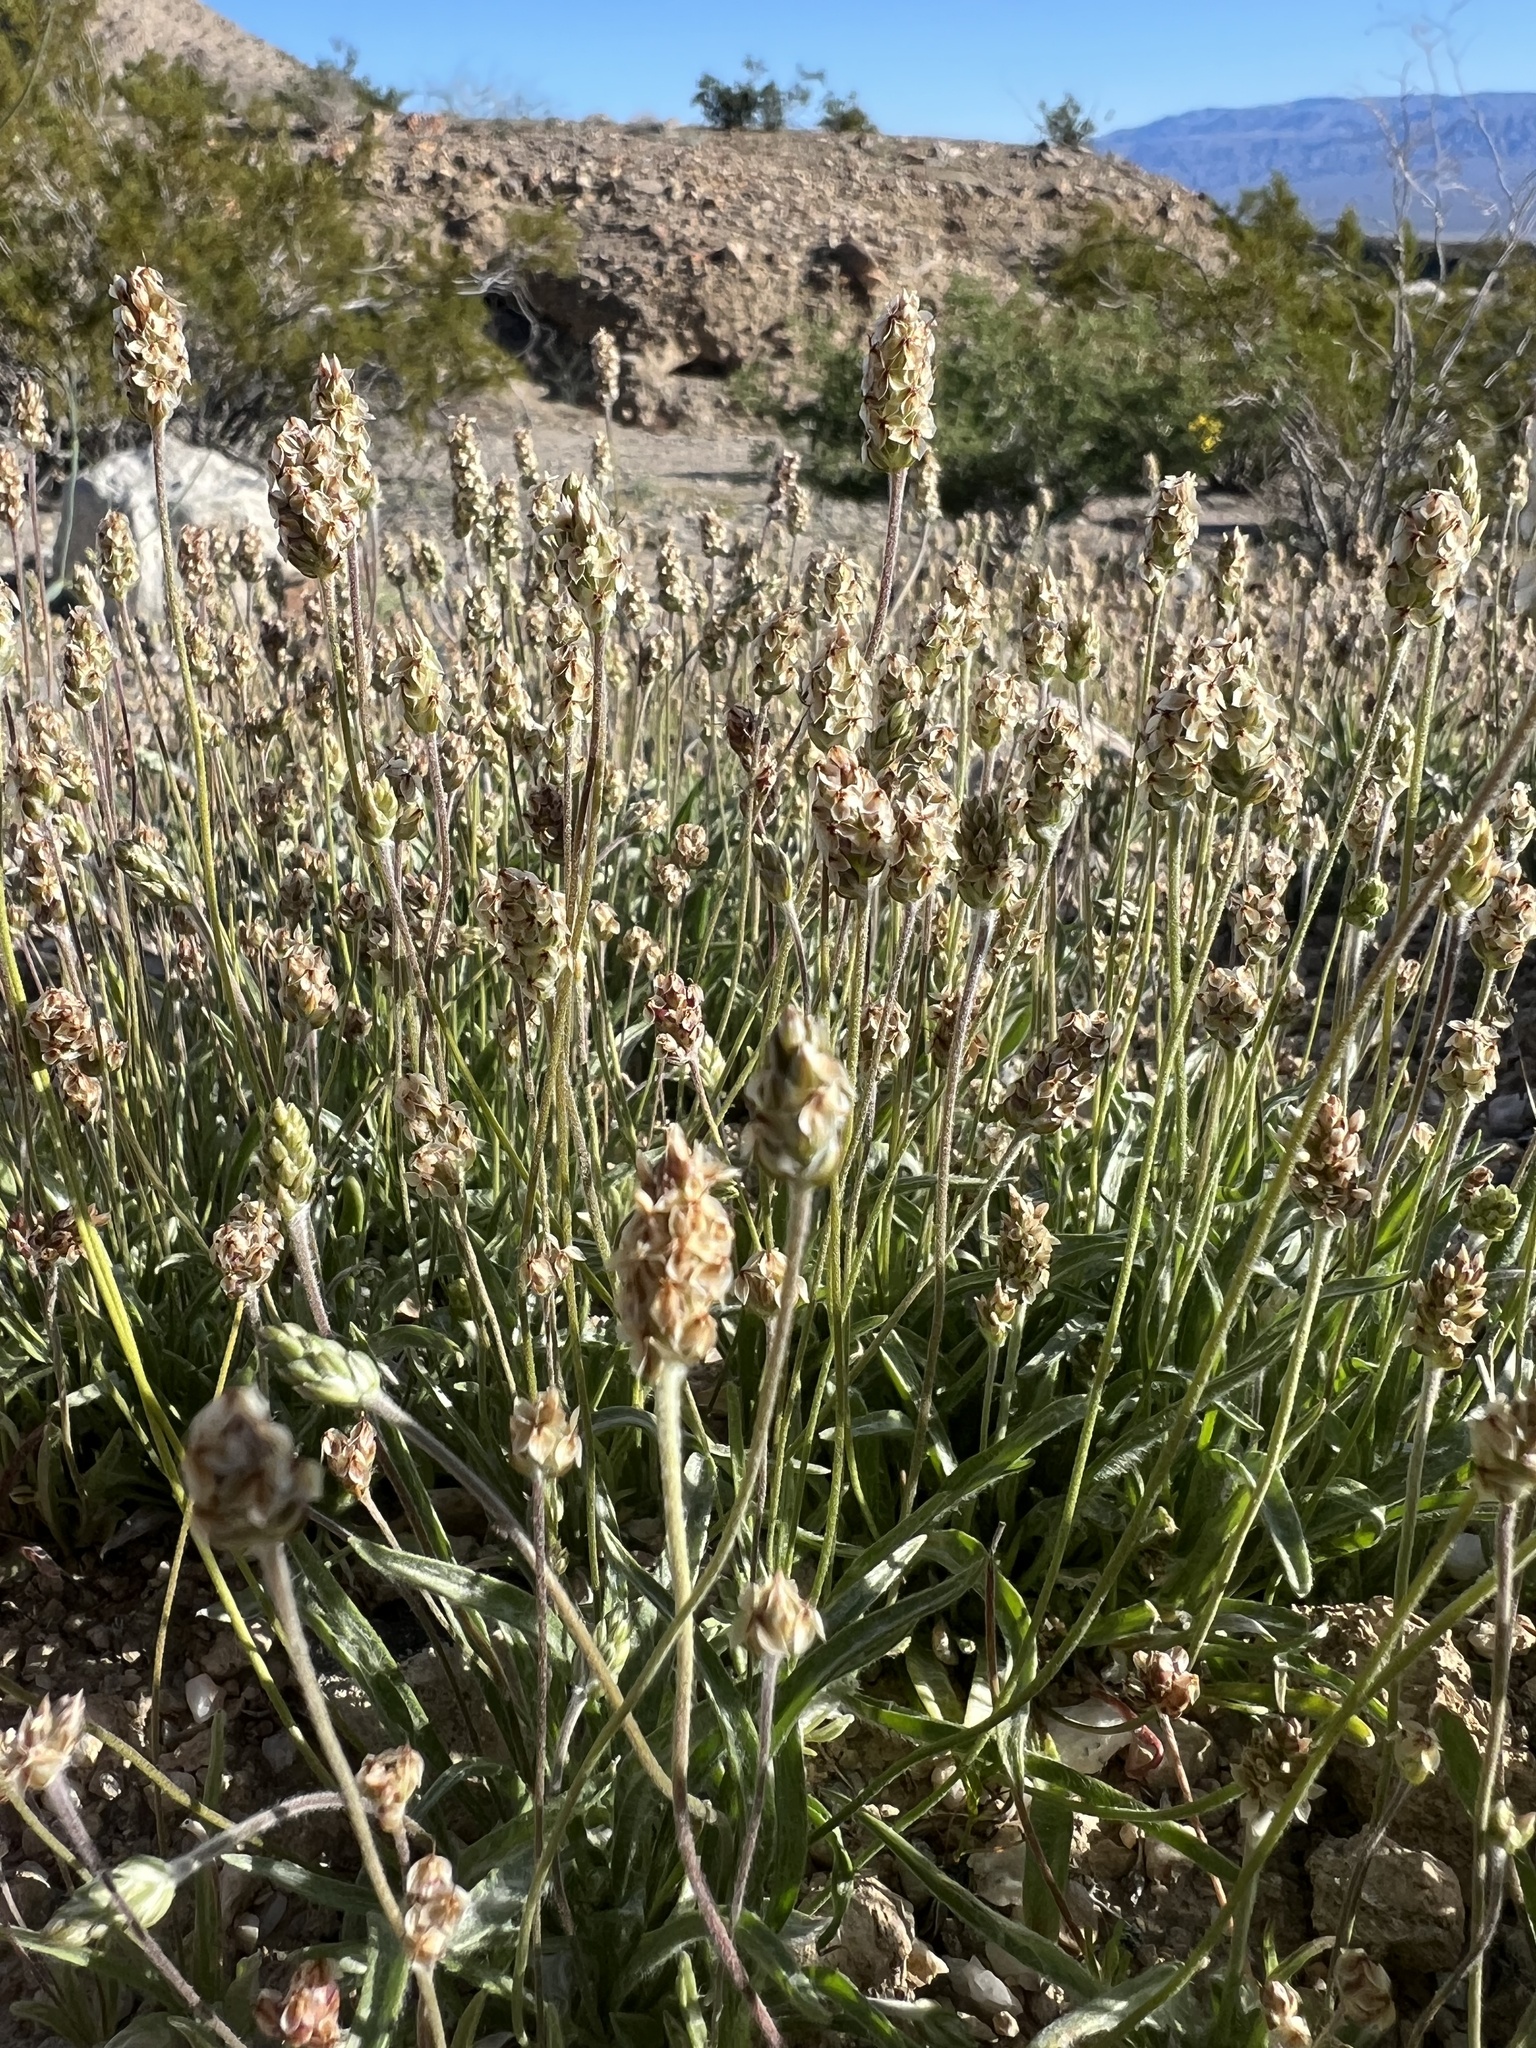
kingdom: Plantae
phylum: Tracheophyta
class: Magnoliopsida
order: Lamiales
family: Plantaginaceae
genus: Plantago
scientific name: Plantago ovata
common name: Blond plantain
